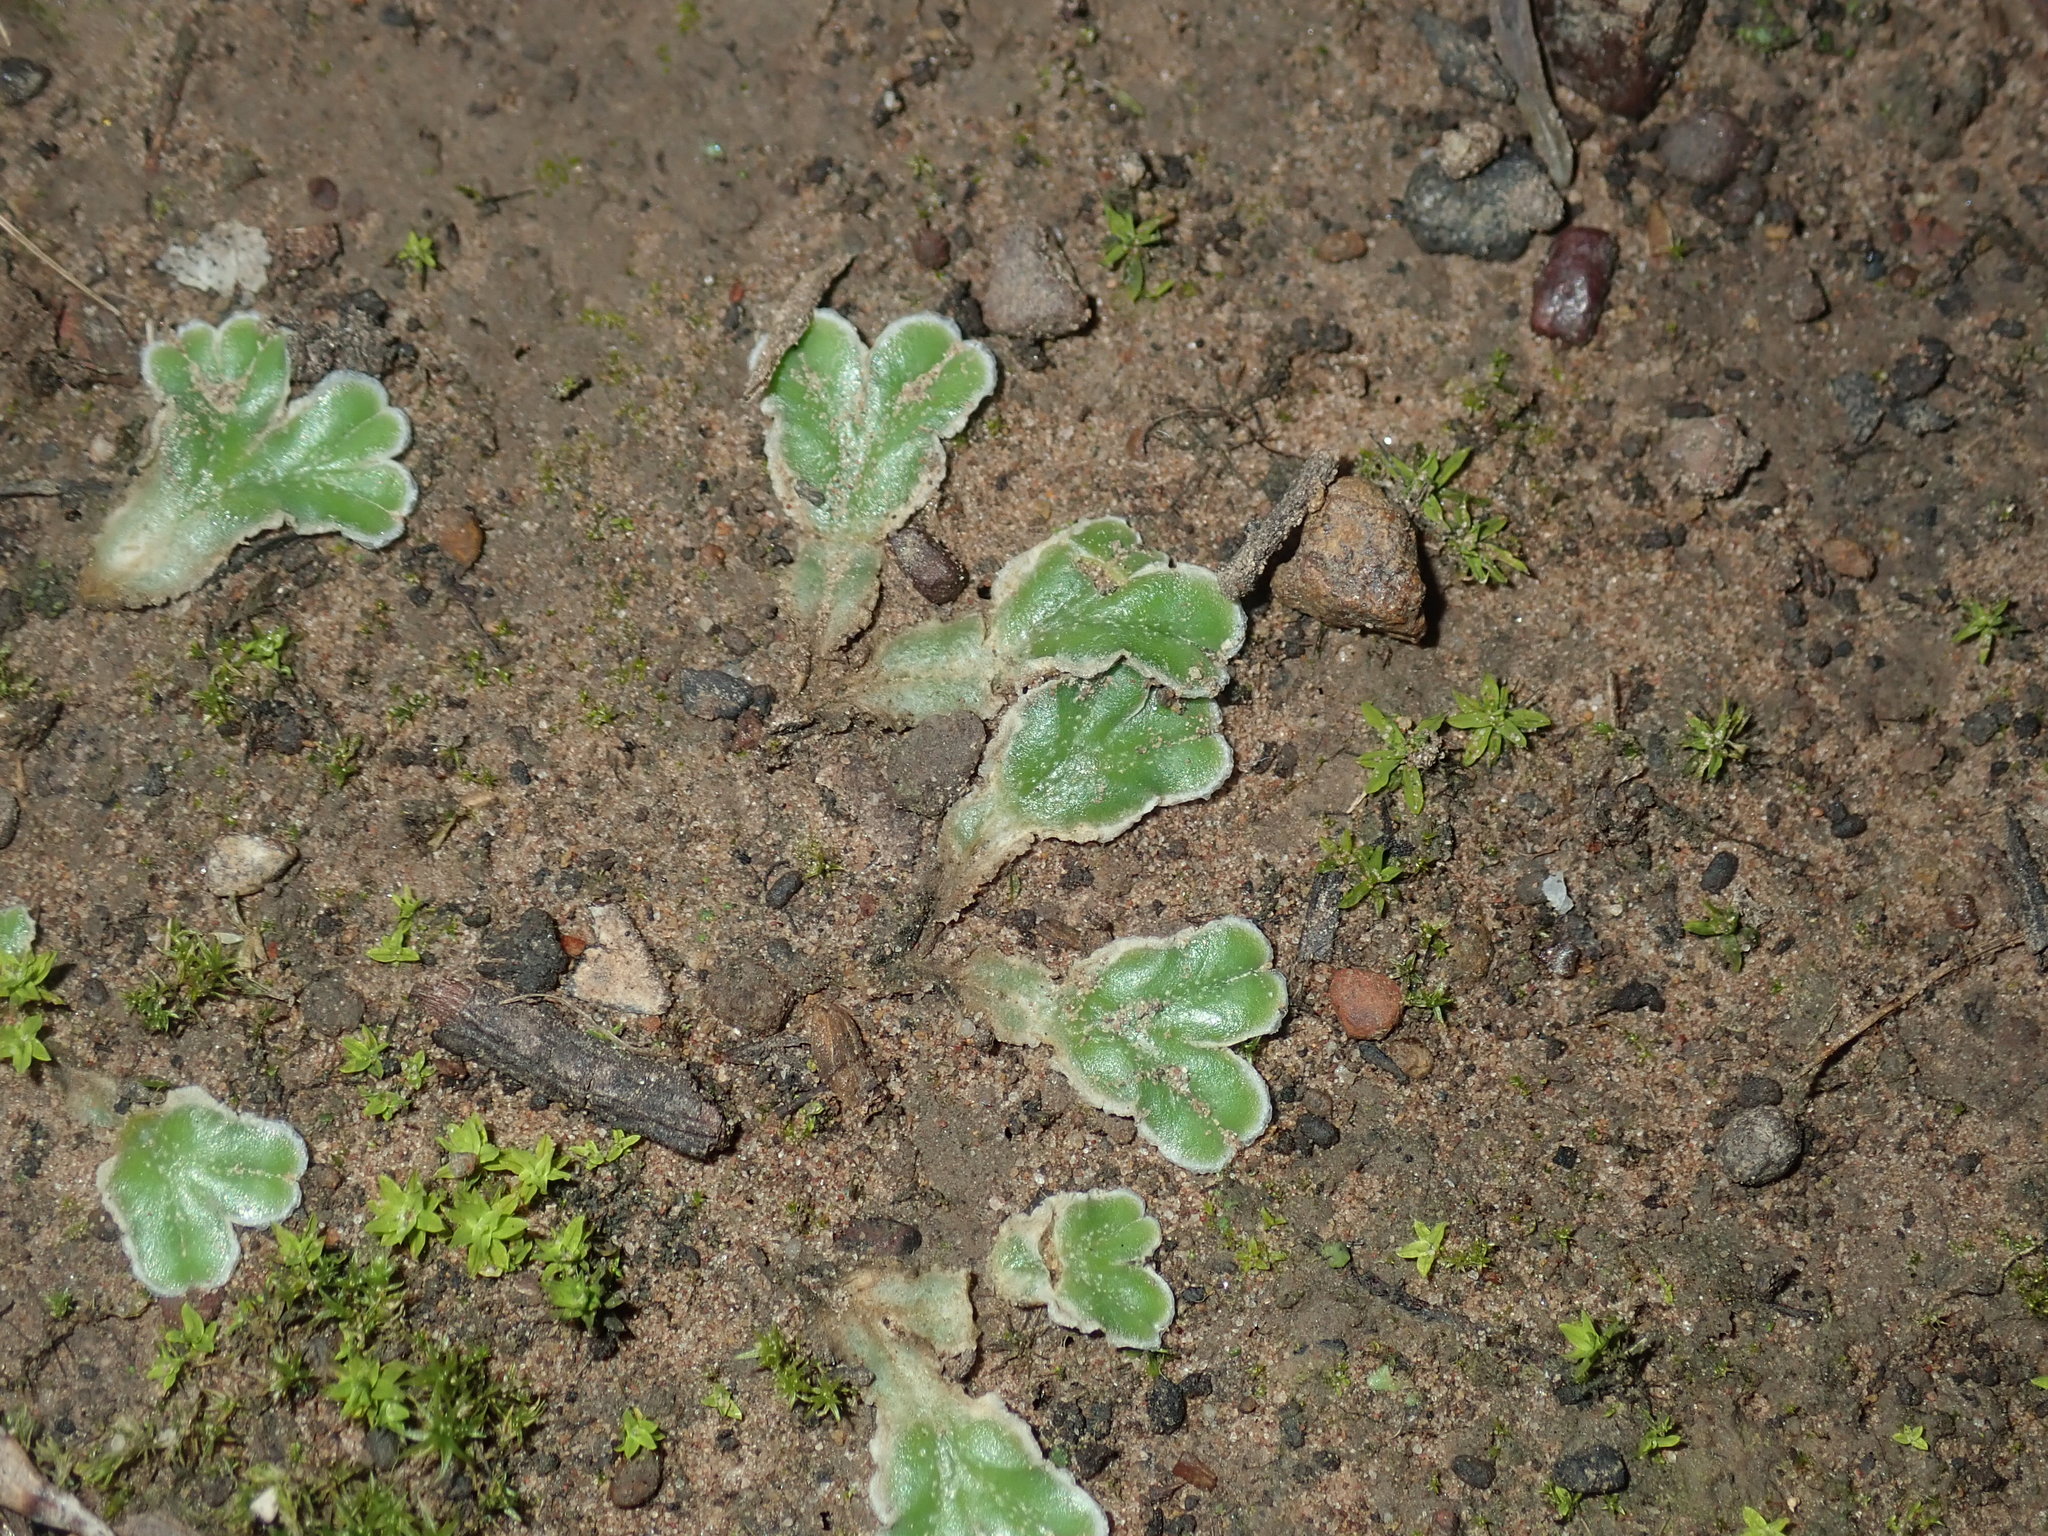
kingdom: Plantae
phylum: Marchantiophyta
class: Marchantiopsida
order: Marchantiales
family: Ricciaceae
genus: Riccia
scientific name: Riccia cartilaginosa
